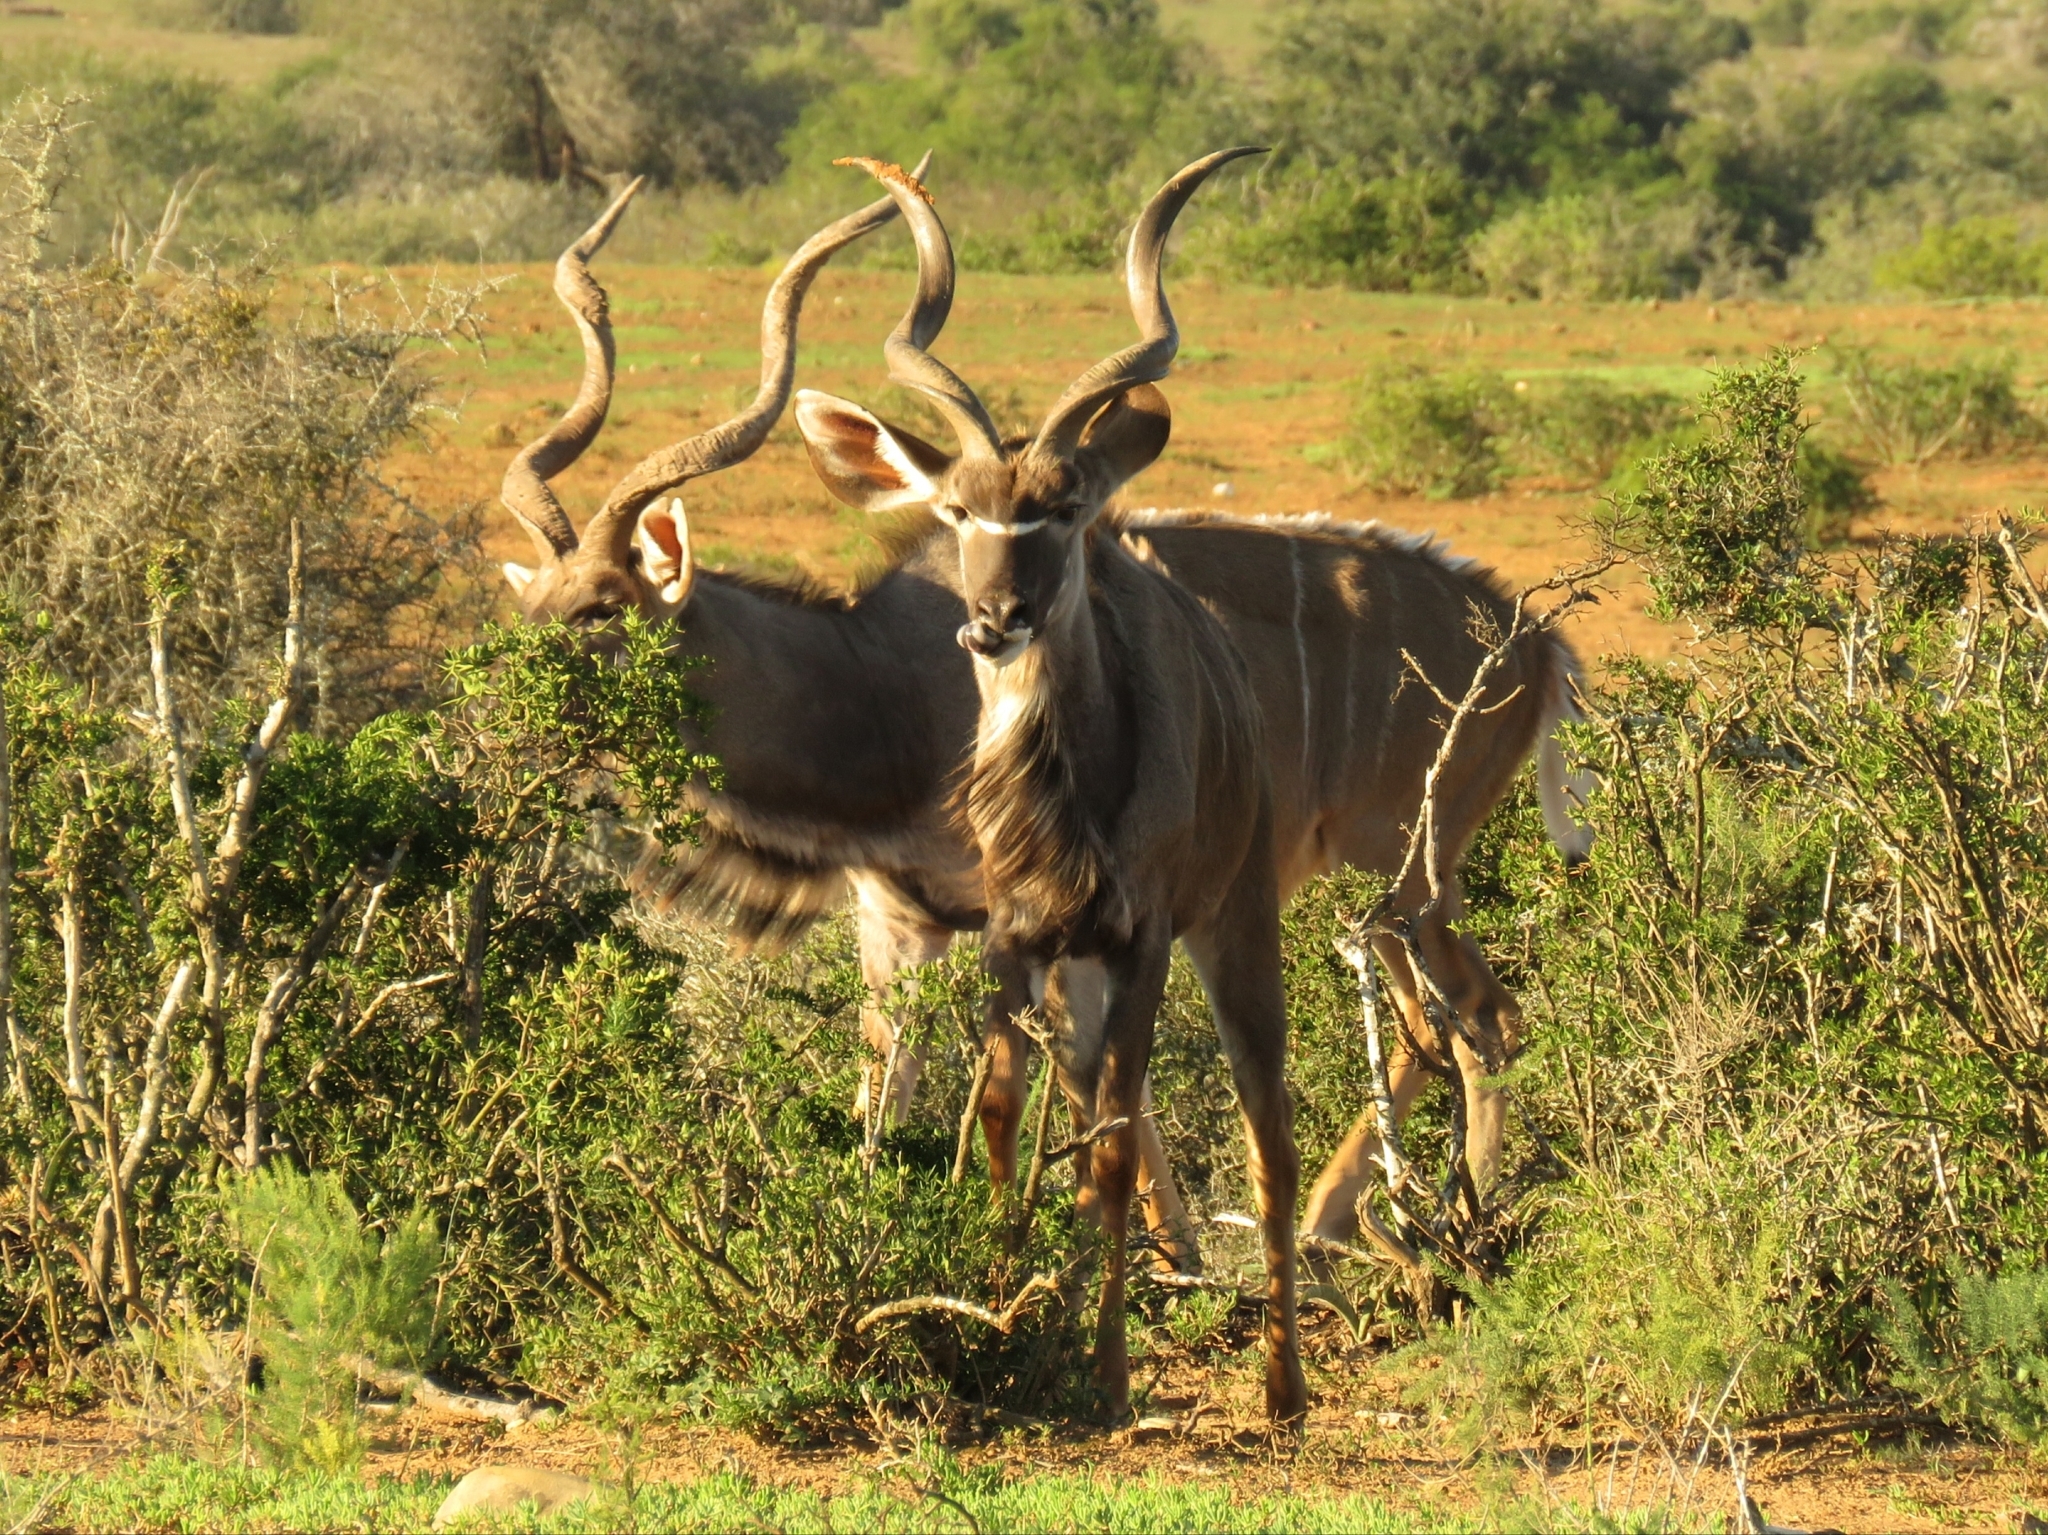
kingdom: Animalia
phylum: Chordata
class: Mammalia
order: Artiodactyla
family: Bovidae
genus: Tragelaphus
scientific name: Tragelaphus strepsiceros
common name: Greater kudu
